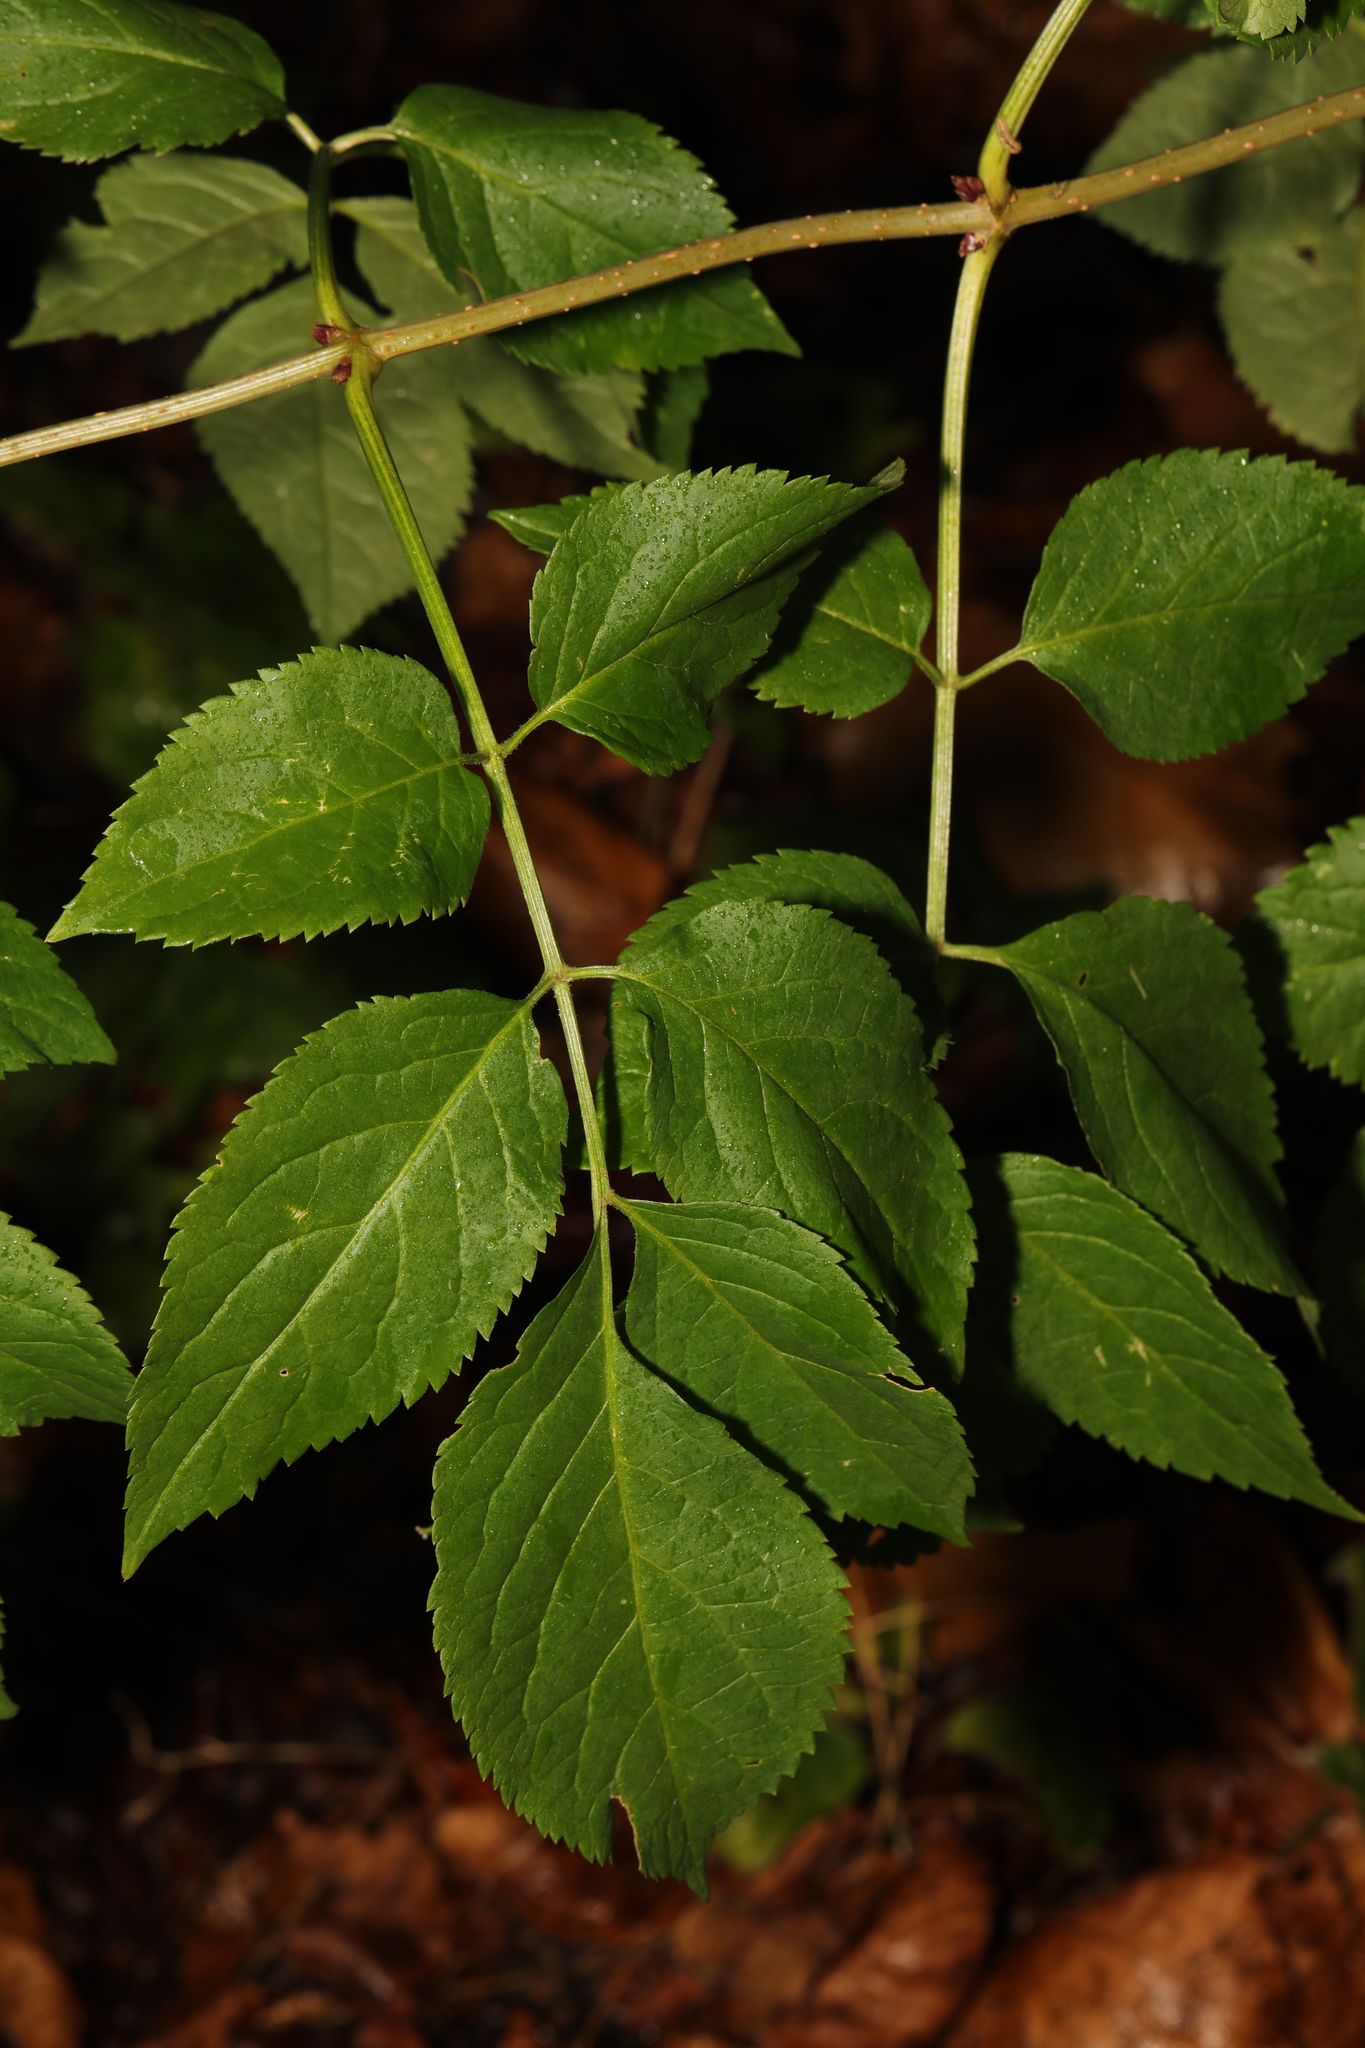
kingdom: Plantae
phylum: Tracheophyta
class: Magnoliopsida
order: Dipsacales
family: Viburnaceae
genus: Sambucus
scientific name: Sambucus nigra
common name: Elder
